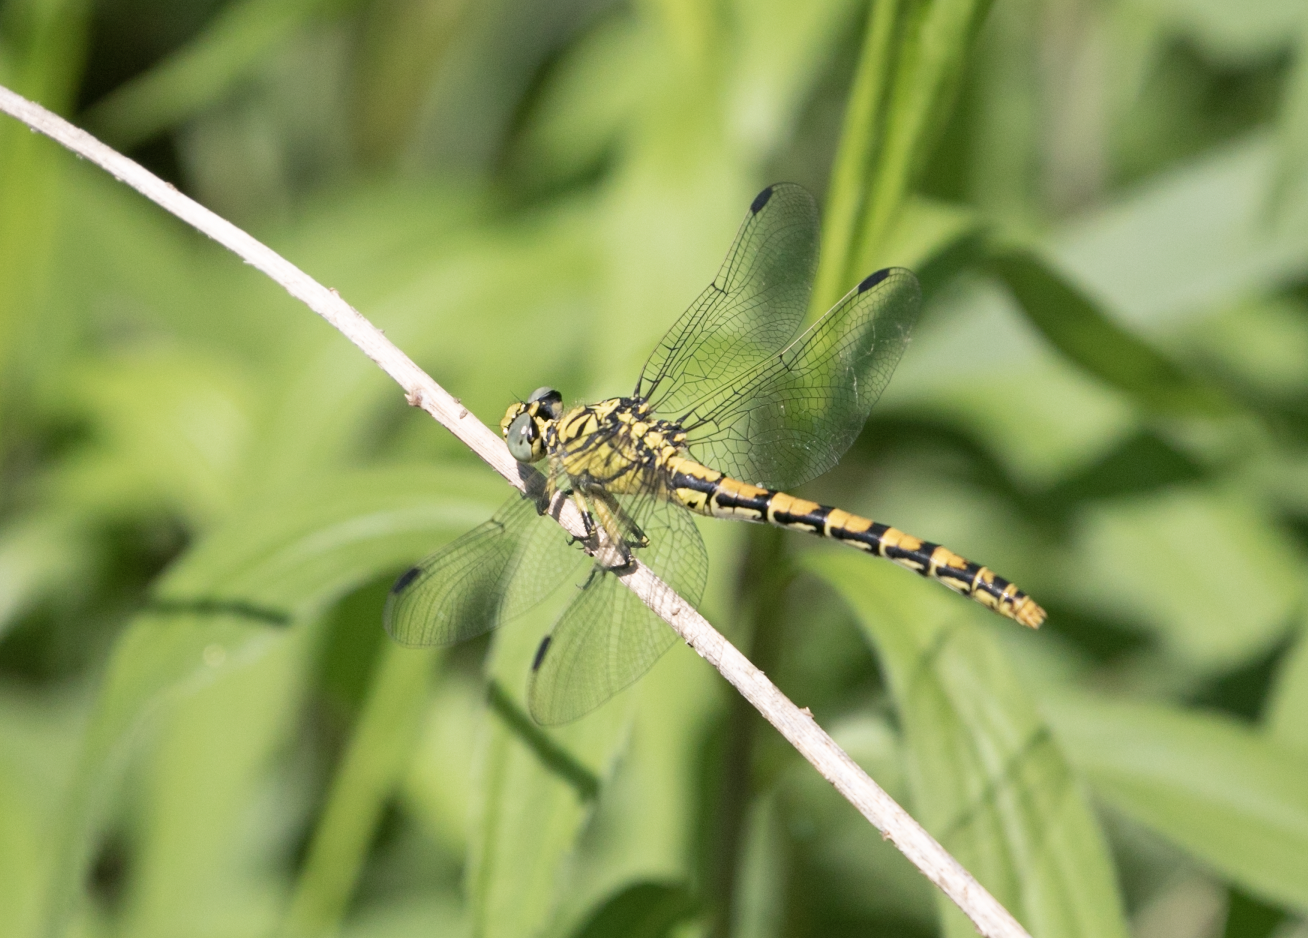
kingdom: Animalia
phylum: Arthropoda
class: Insecta
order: Odonata
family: Gomphidae
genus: Onychogomphus
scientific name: Onychogomphus forcipatus
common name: Small pincertail
